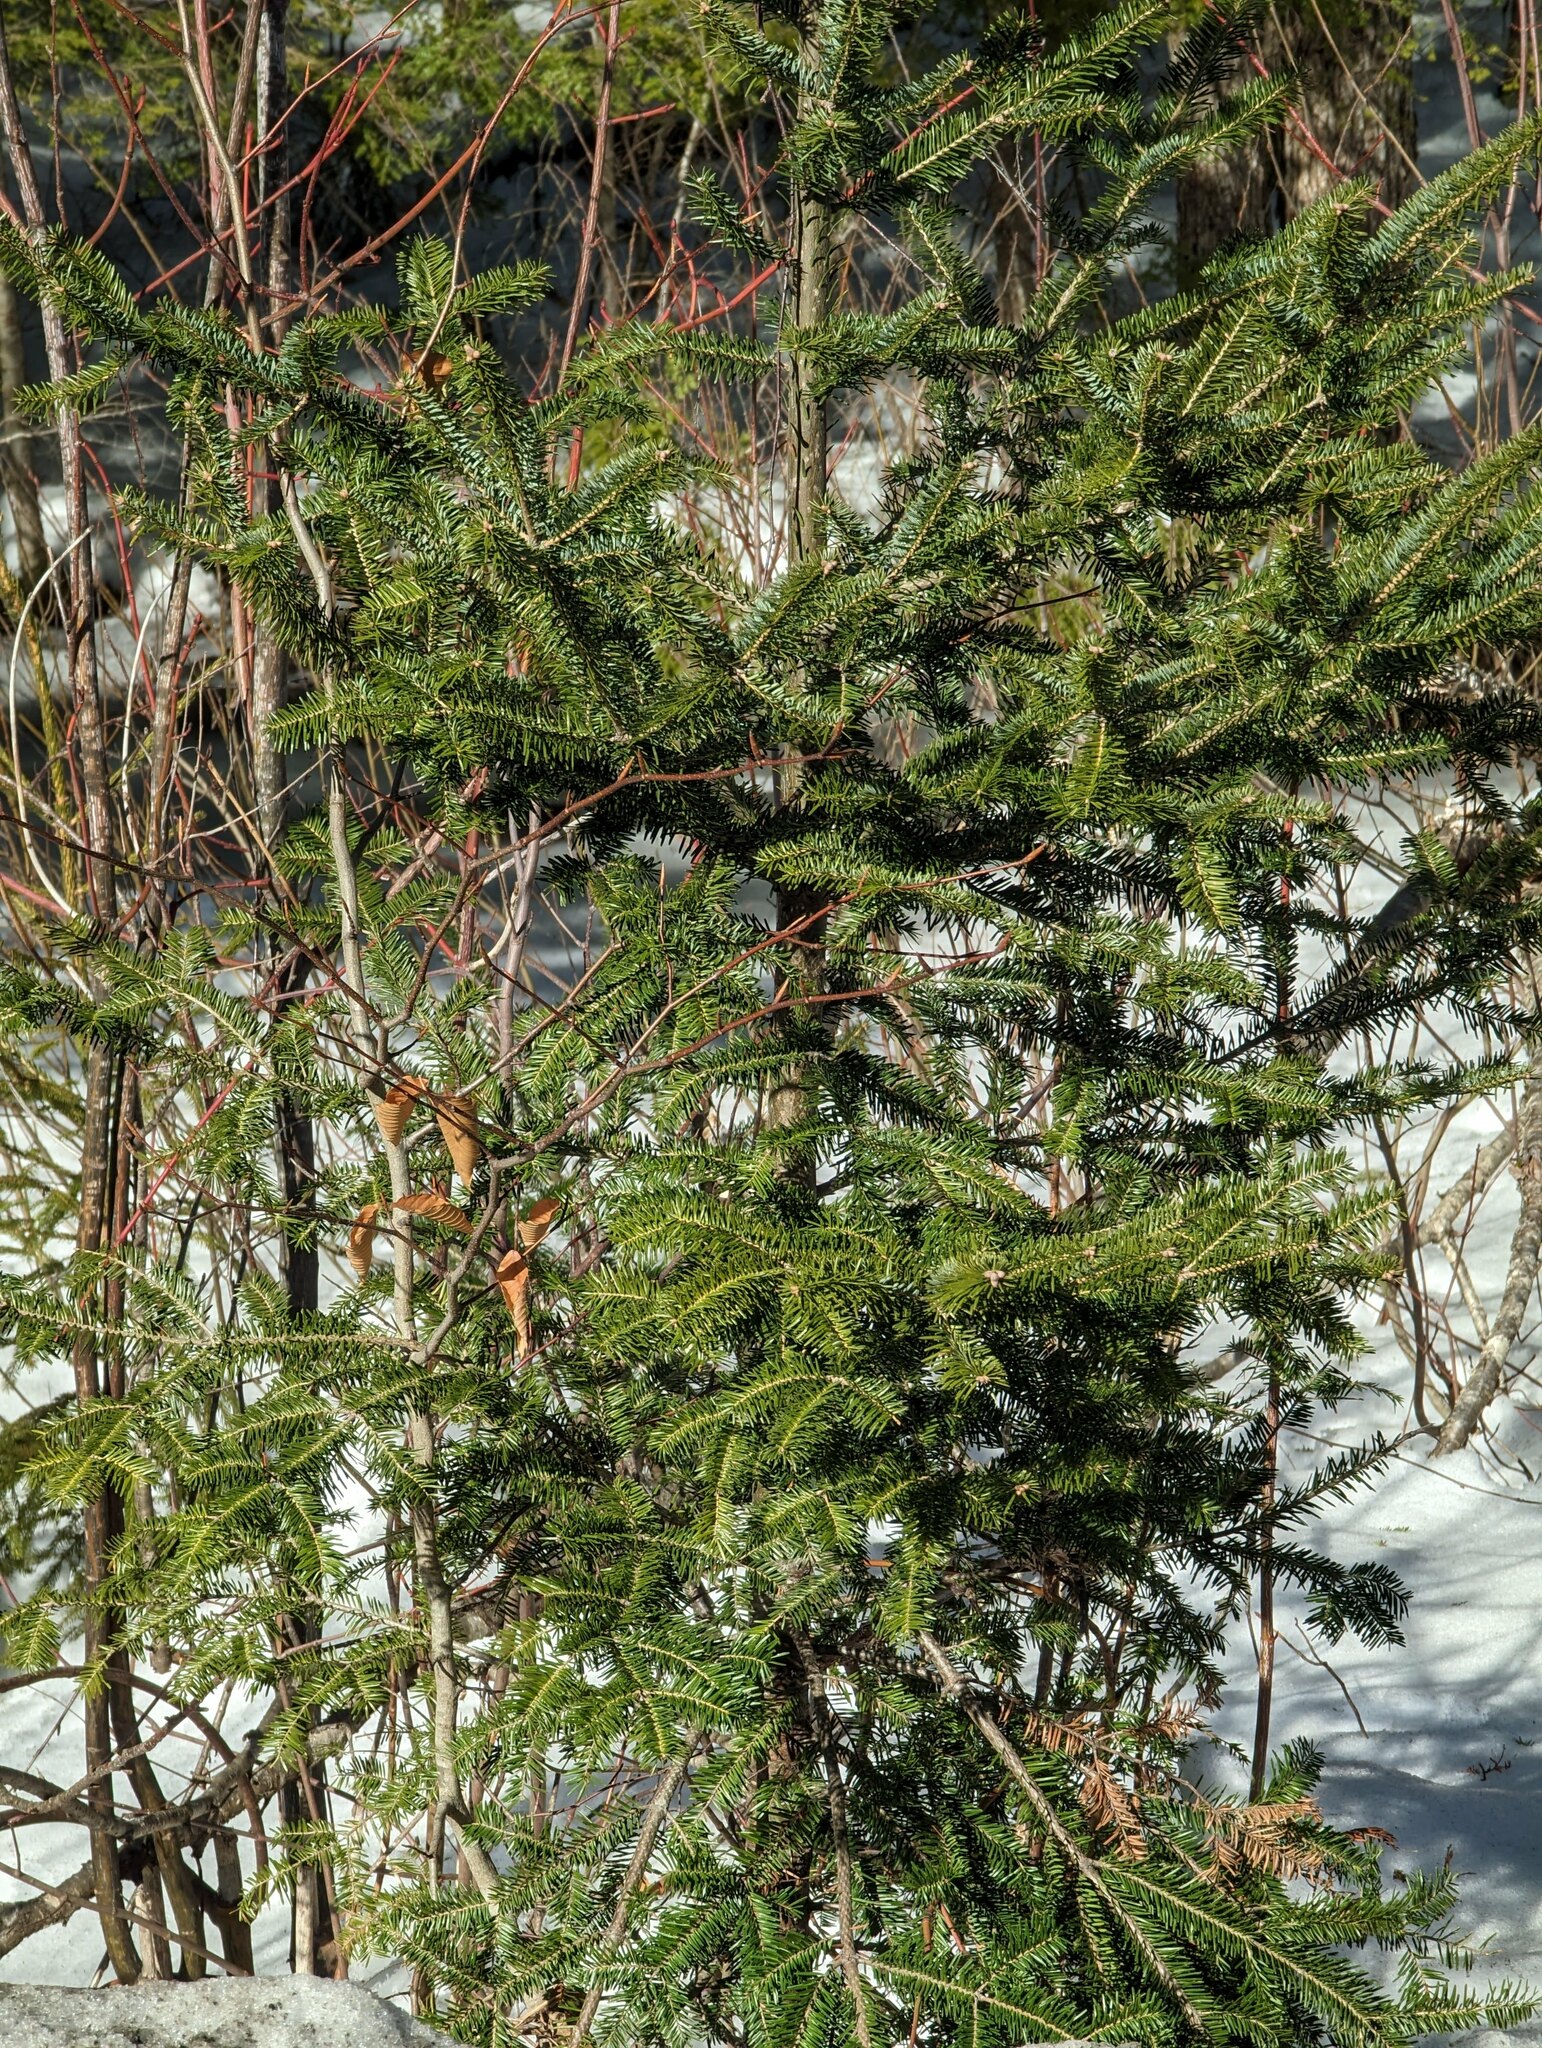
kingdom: Plantae
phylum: Tracheophyta
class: Pinopsida
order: Pinales
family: Pinaceae
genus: Abies
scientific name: Abies balsamea
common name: Balsam fir
